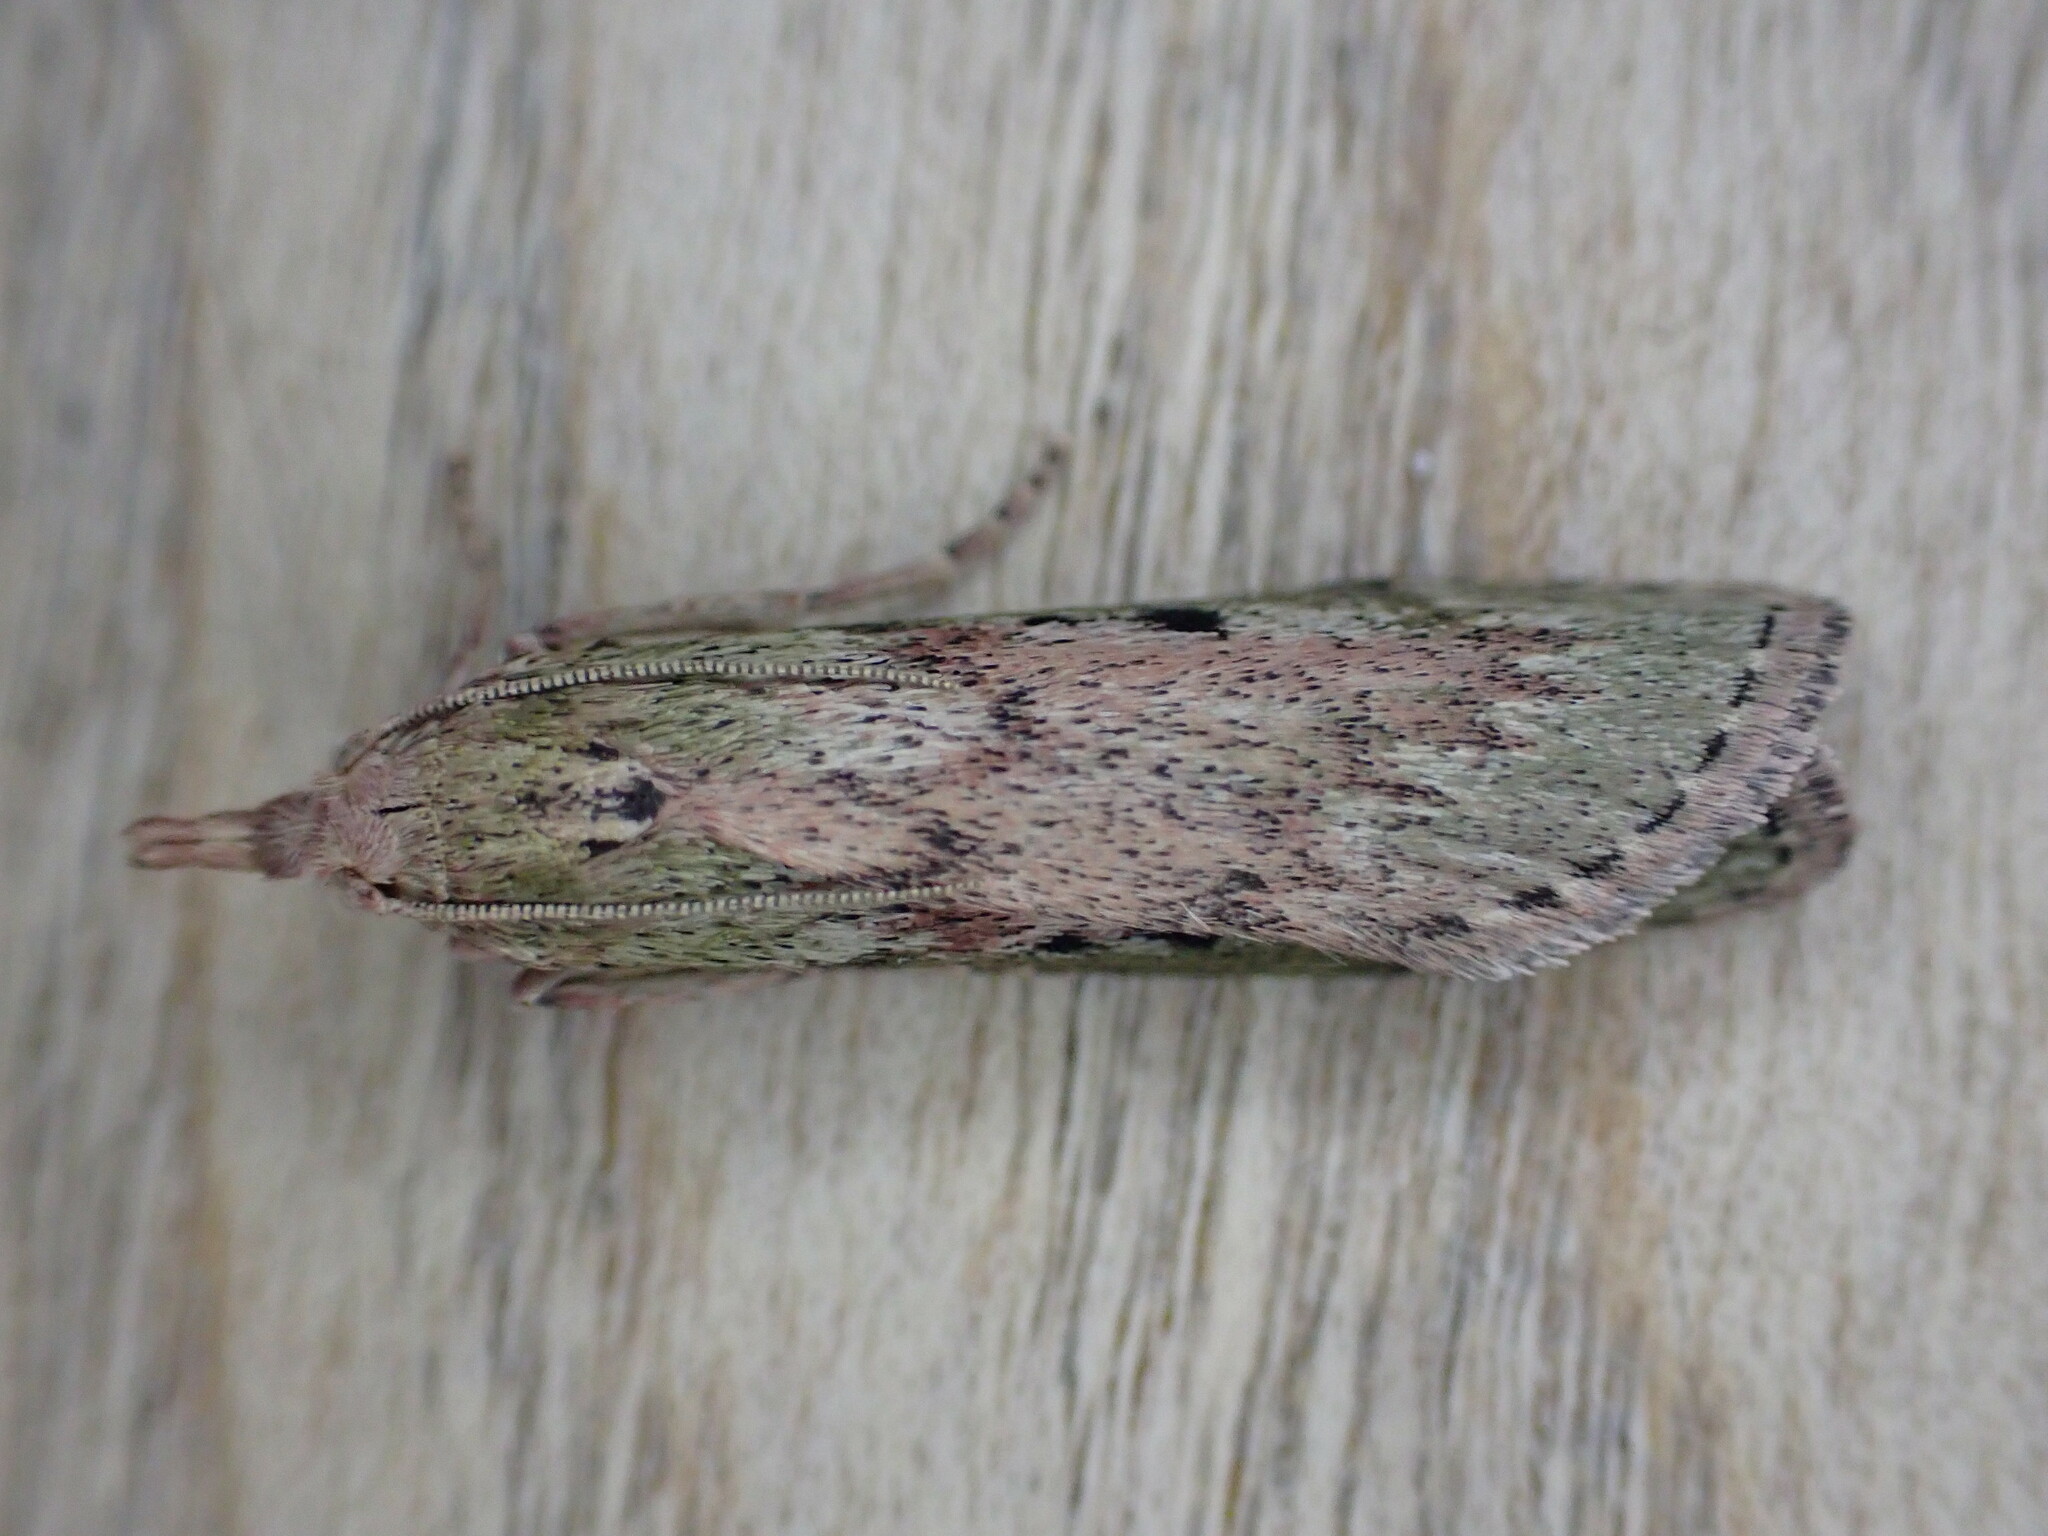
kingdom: Animalia
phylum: Arthropoda
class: Insecta
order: Lepidoptera
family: Pyralidae
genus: Aphomia
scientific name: Aphomia sociella
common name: Bee moth
